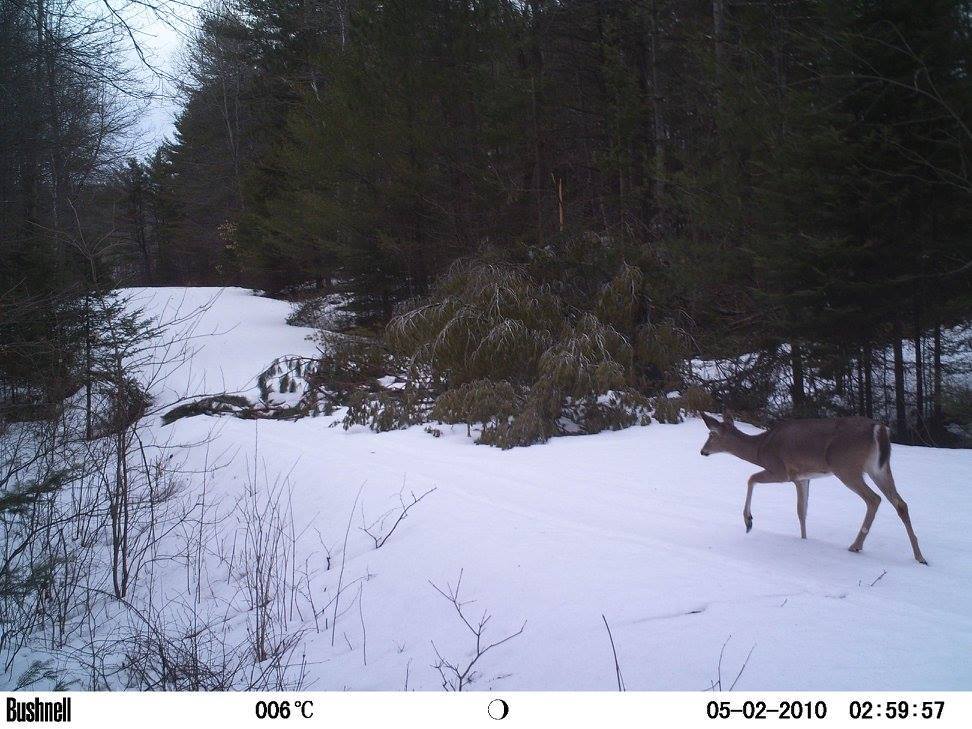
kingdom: Animalia
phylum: Chordata
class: Mammalia
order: Artiodactyla
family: Cervidae
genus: Odocoileus
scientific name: Odocoileus virginianus
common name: White-tailed deer
